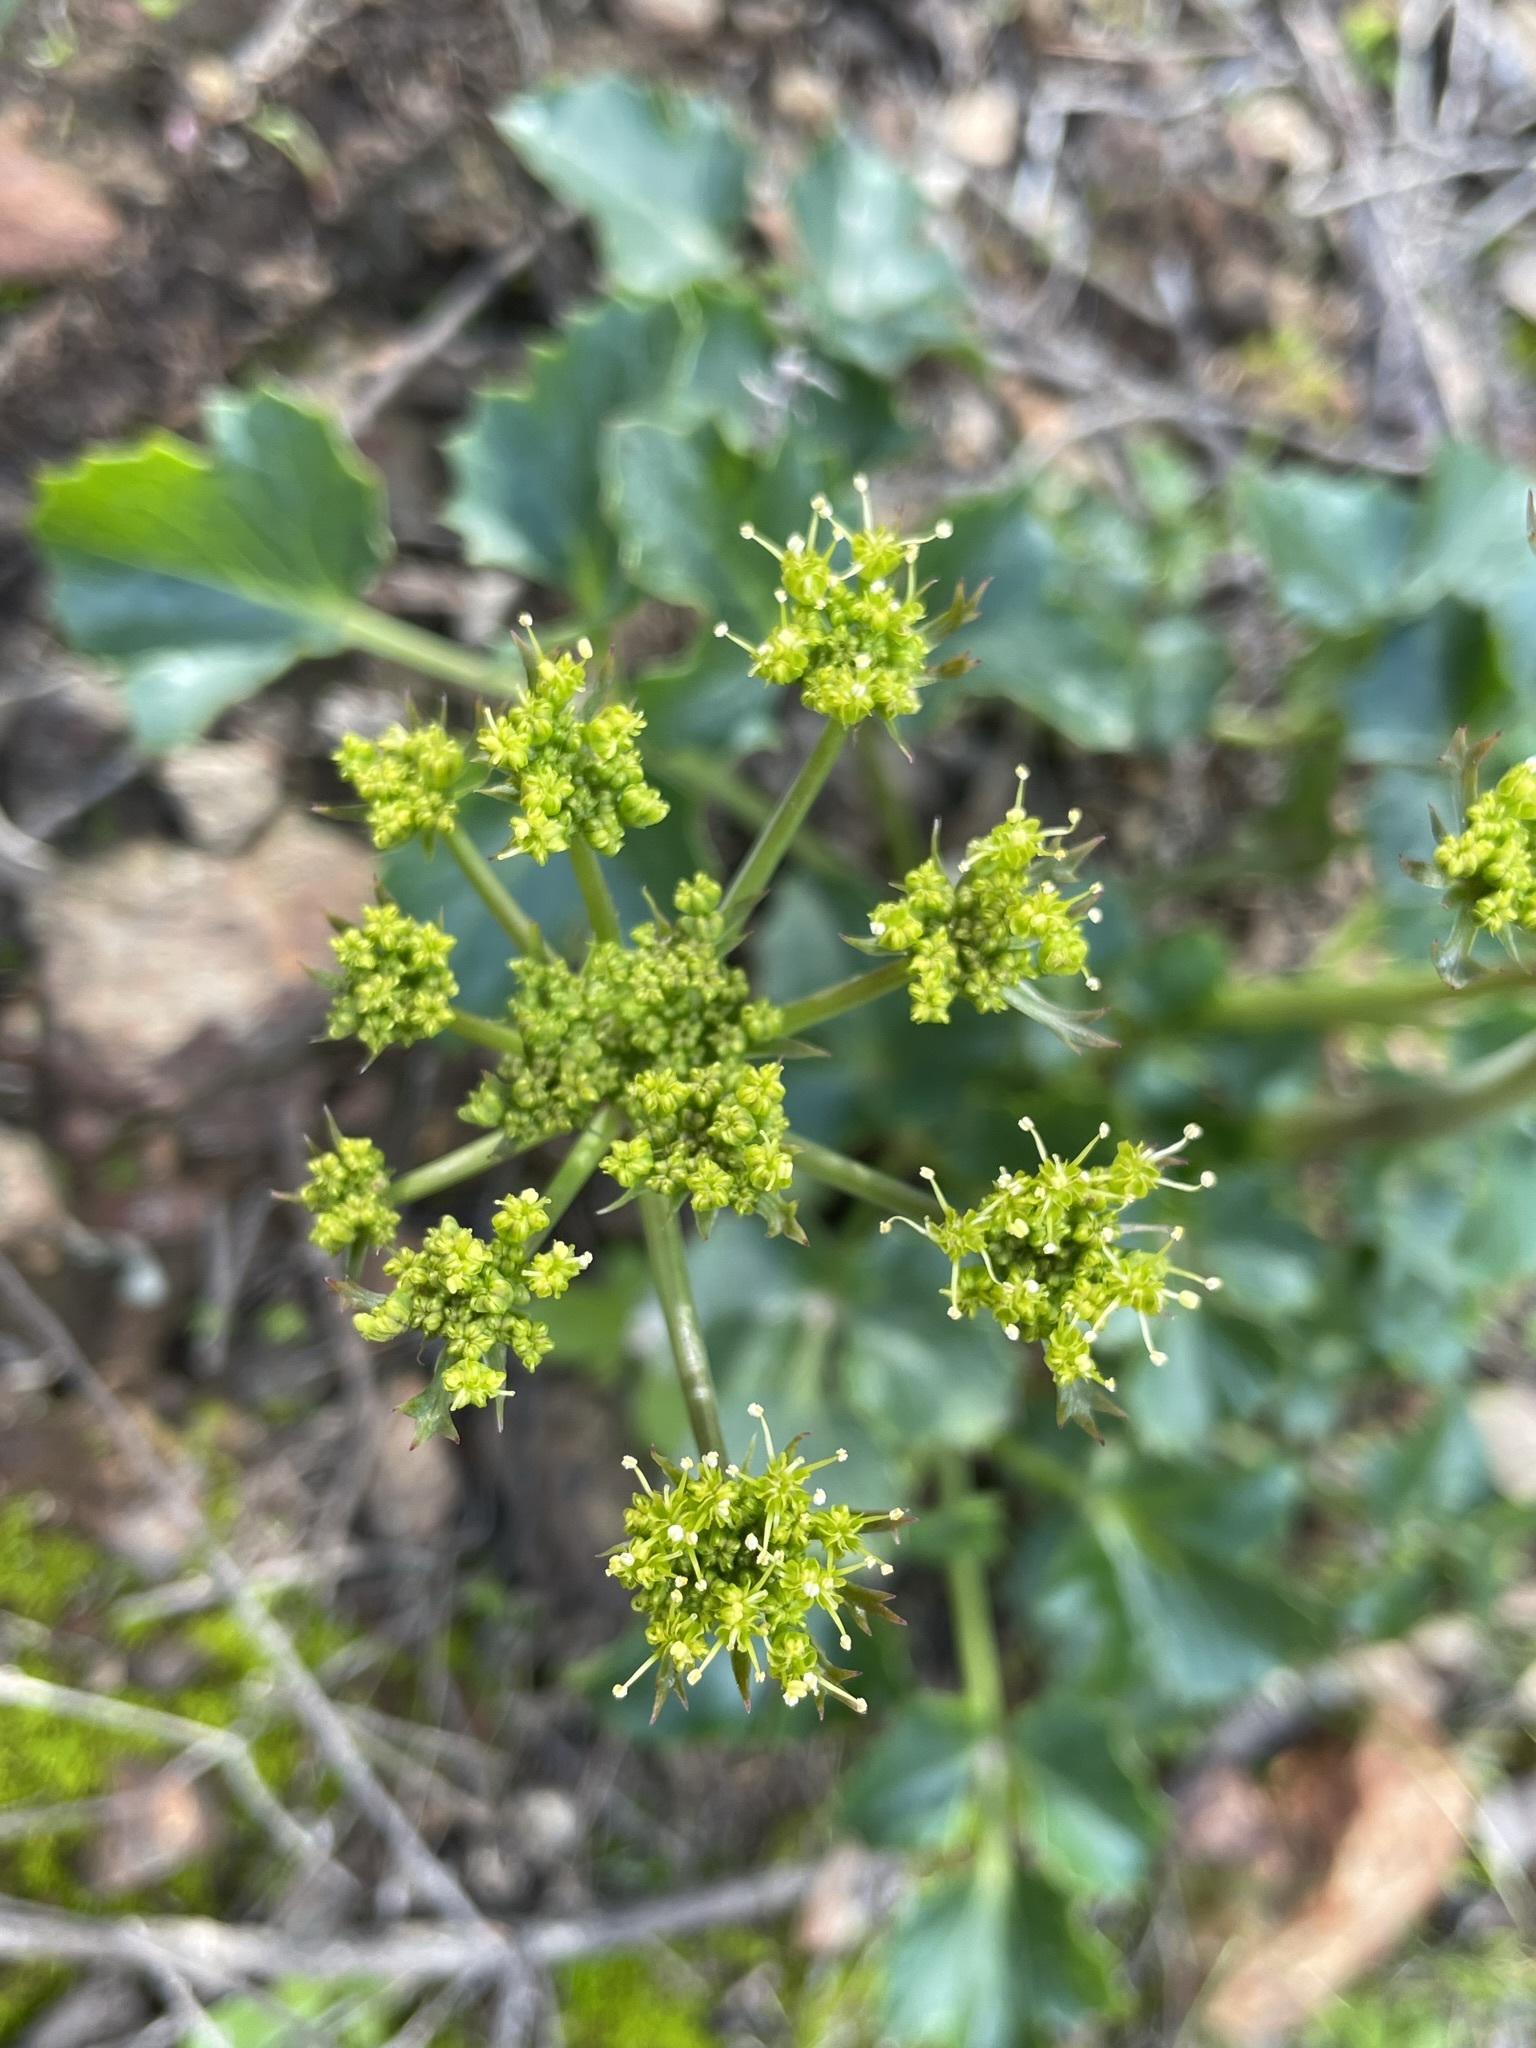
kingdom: Plantae
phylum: Tracheophyta
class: Magnoliopsida
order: Apiales
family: Apiaceae
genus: Lomatium
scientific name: Lomatium lucidum
